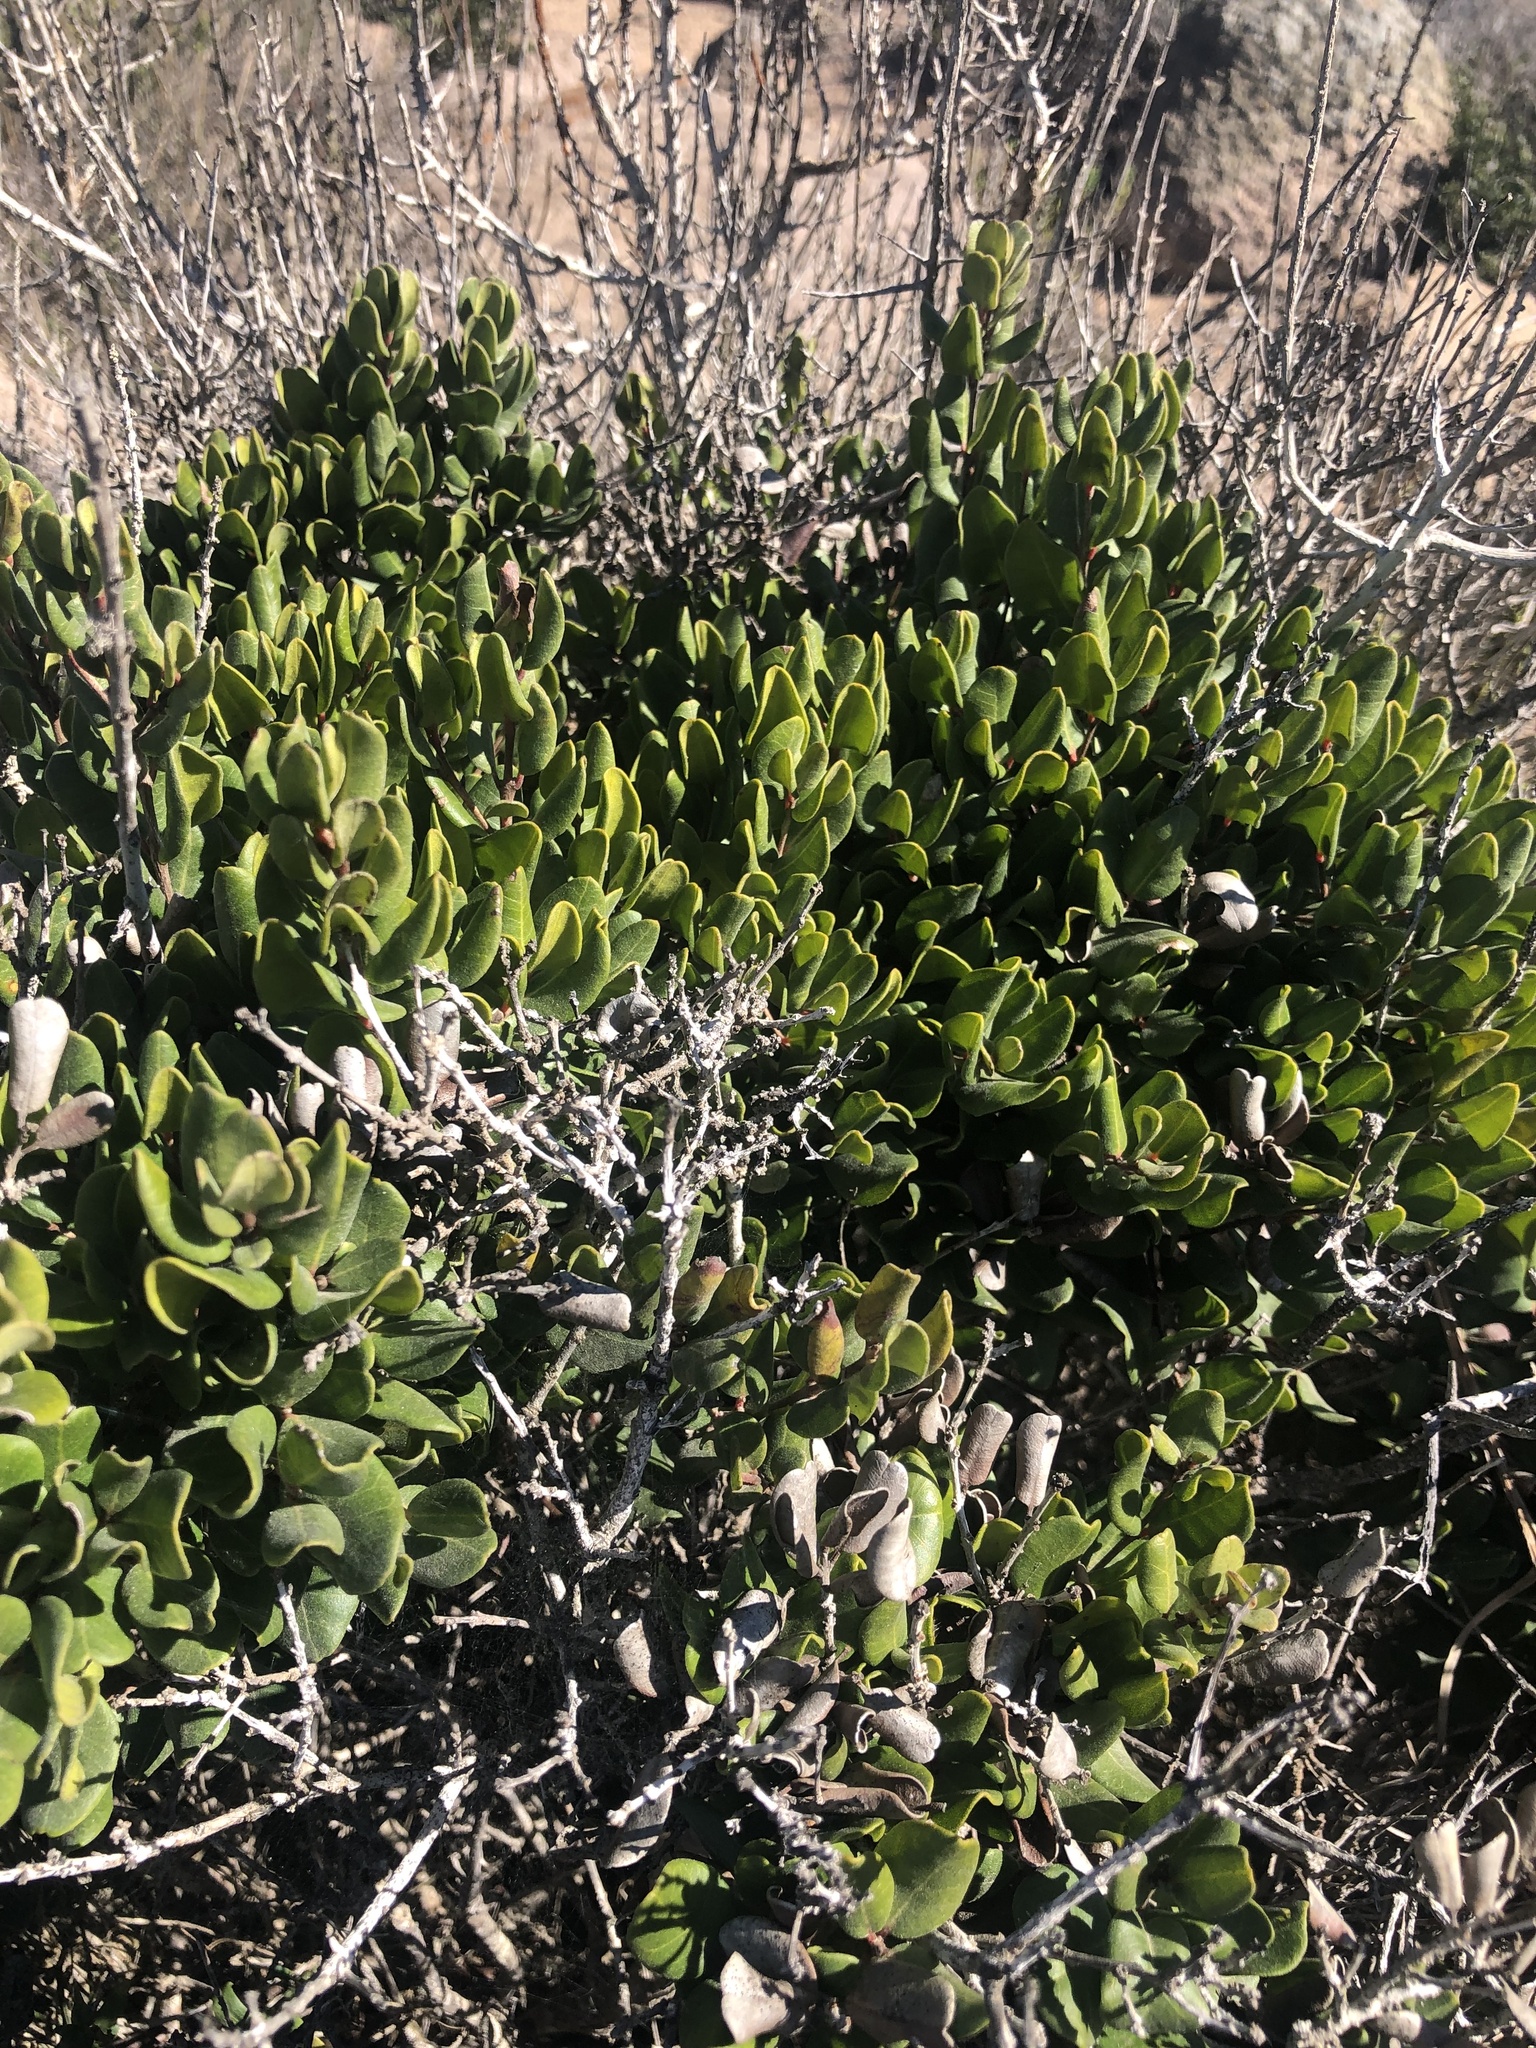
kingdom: Plantae
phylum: Tracheophyta
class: Magnoliopsida
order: Myrtales
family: Myrtaceae
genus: Myrcianthes
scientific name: Myrcianthes coquimbensis
